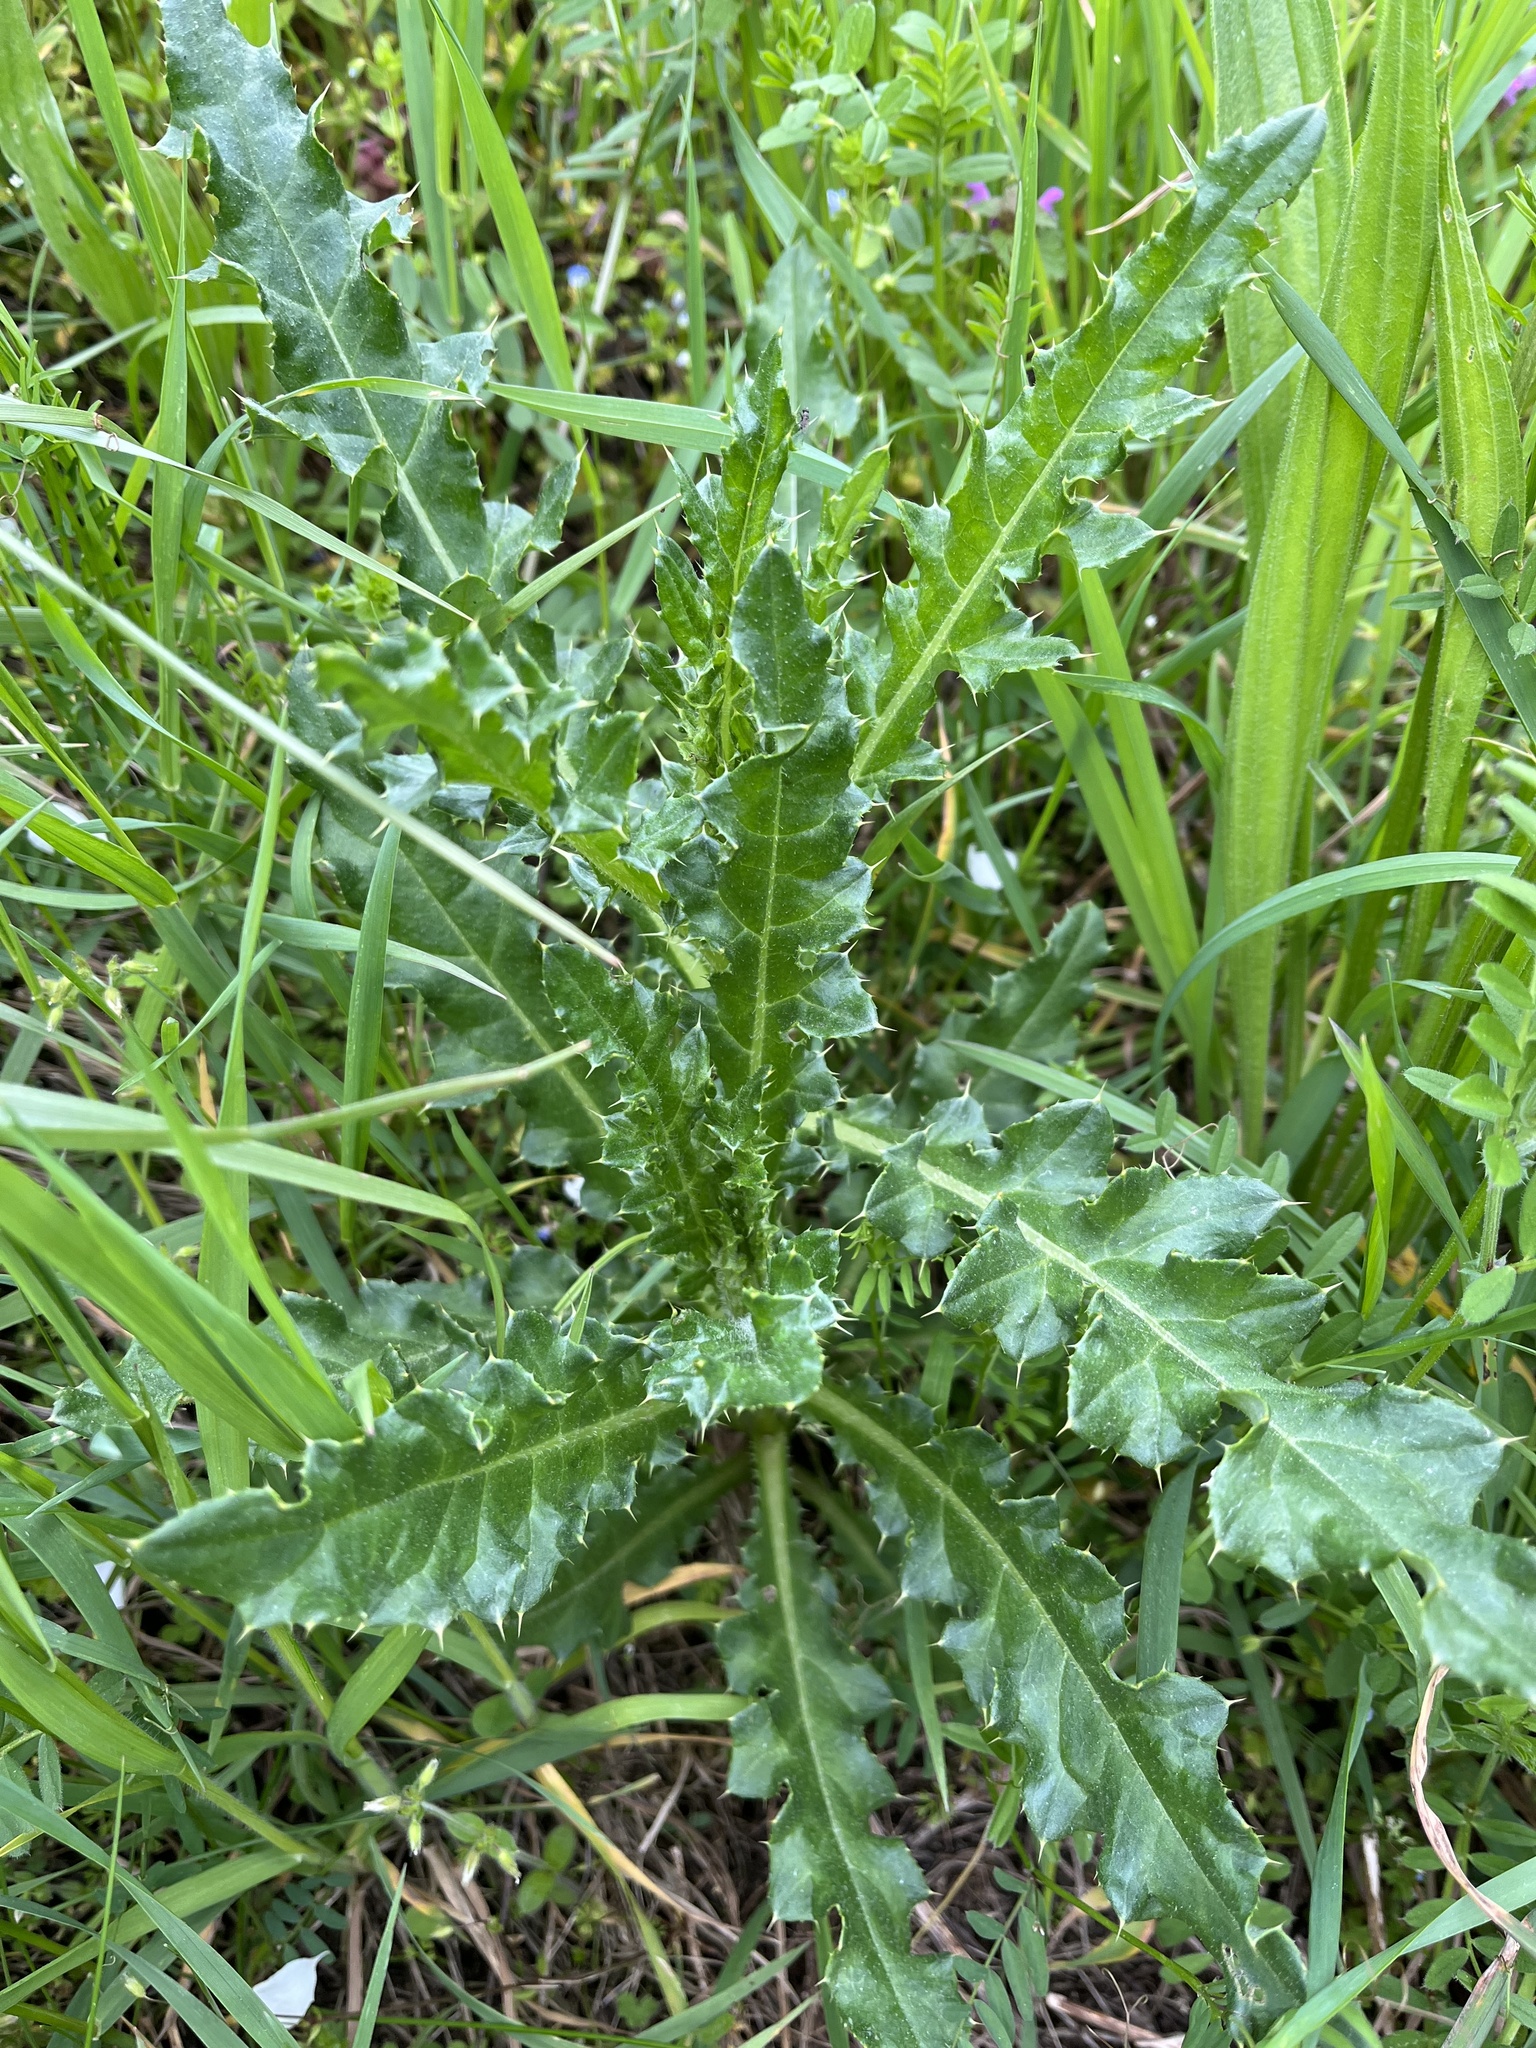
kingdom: Plantae
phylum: Tracheophyta
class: Magnoliopsida
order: Asterales
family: Asteraceae
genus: Cirsium
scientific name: Cirsium arvense
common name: Creeping thistle
